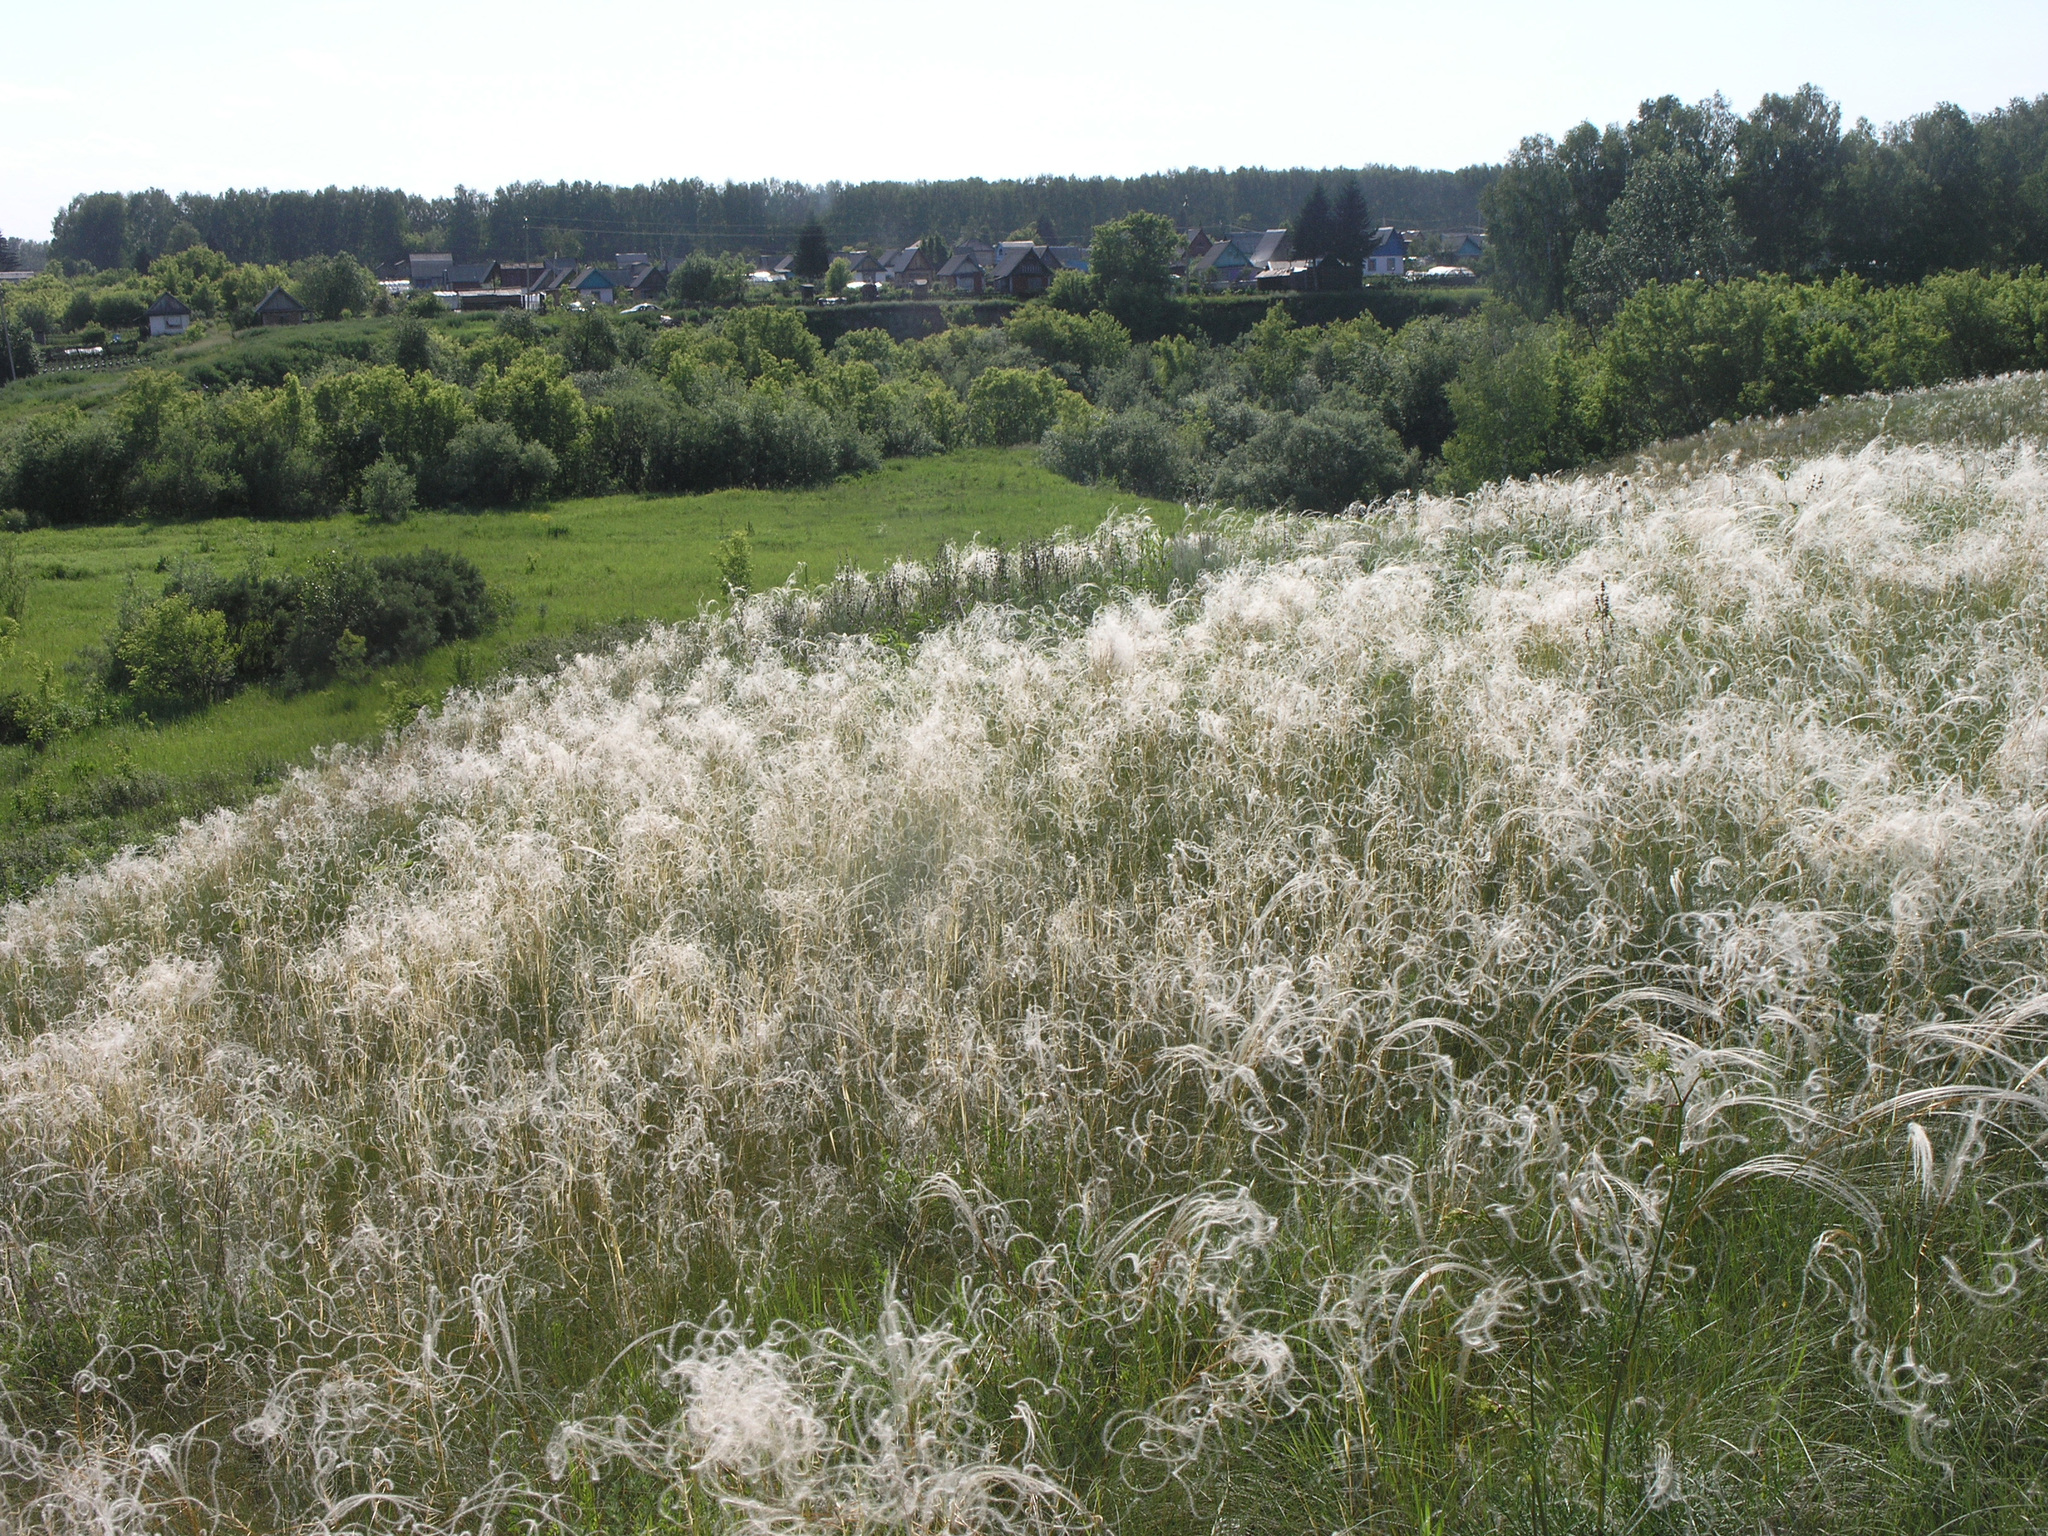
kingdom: Plantae
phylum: Tracheophyta
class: Liliopsida
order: Poales
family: Poaceae
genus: Stipa
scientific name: Stipa pennata
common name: European feather grass
